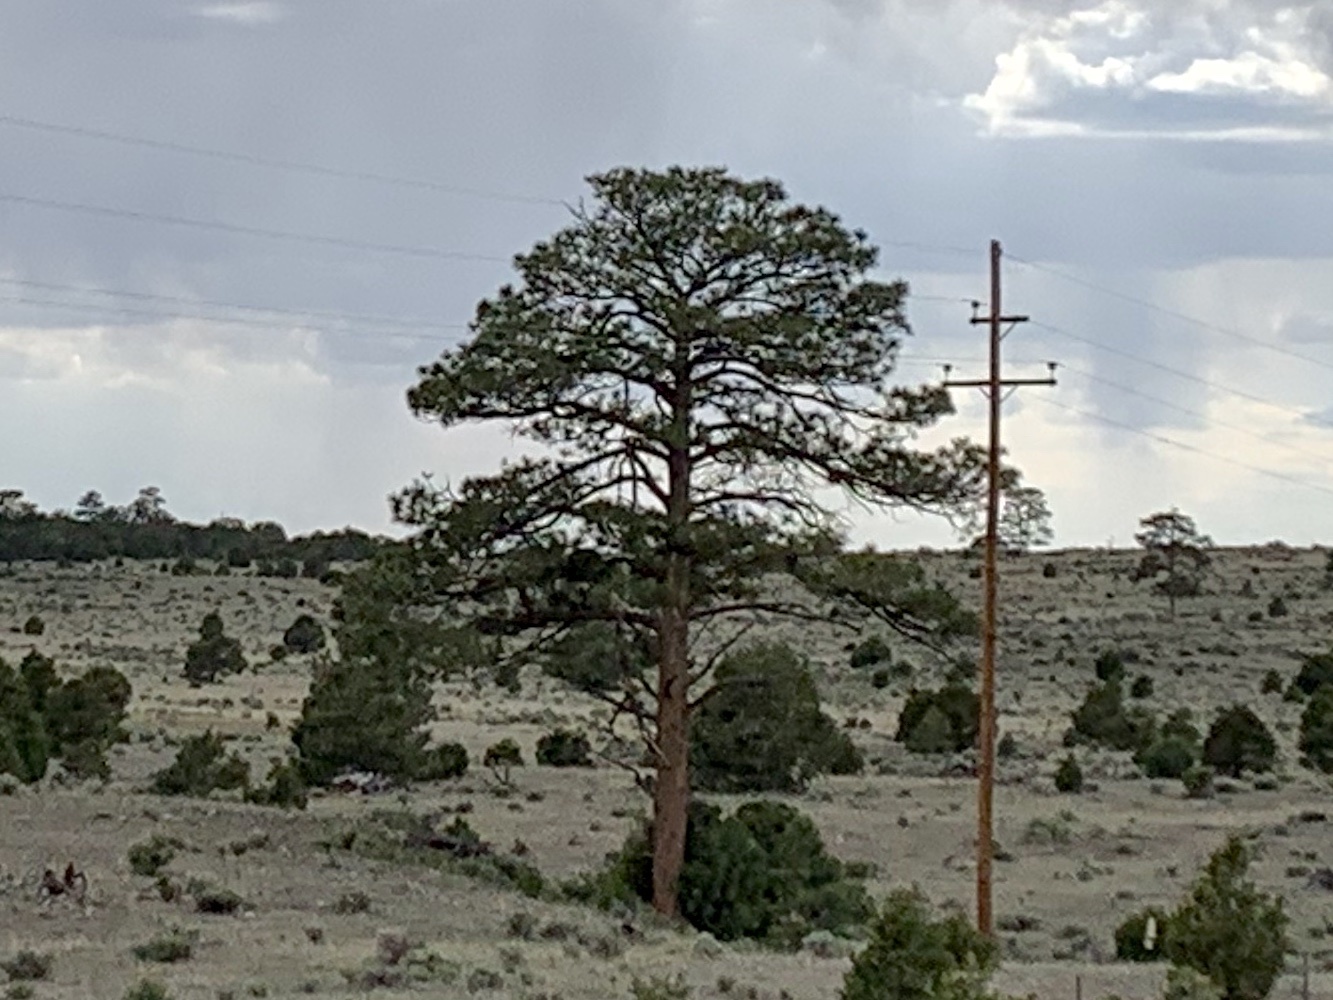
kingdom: Plantae
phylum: Tracheophyta
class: Pinopsida
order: Pinales
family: Pinaceae
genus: Pinus
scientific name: Pinus ponderosa
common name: Western yellow-pine
